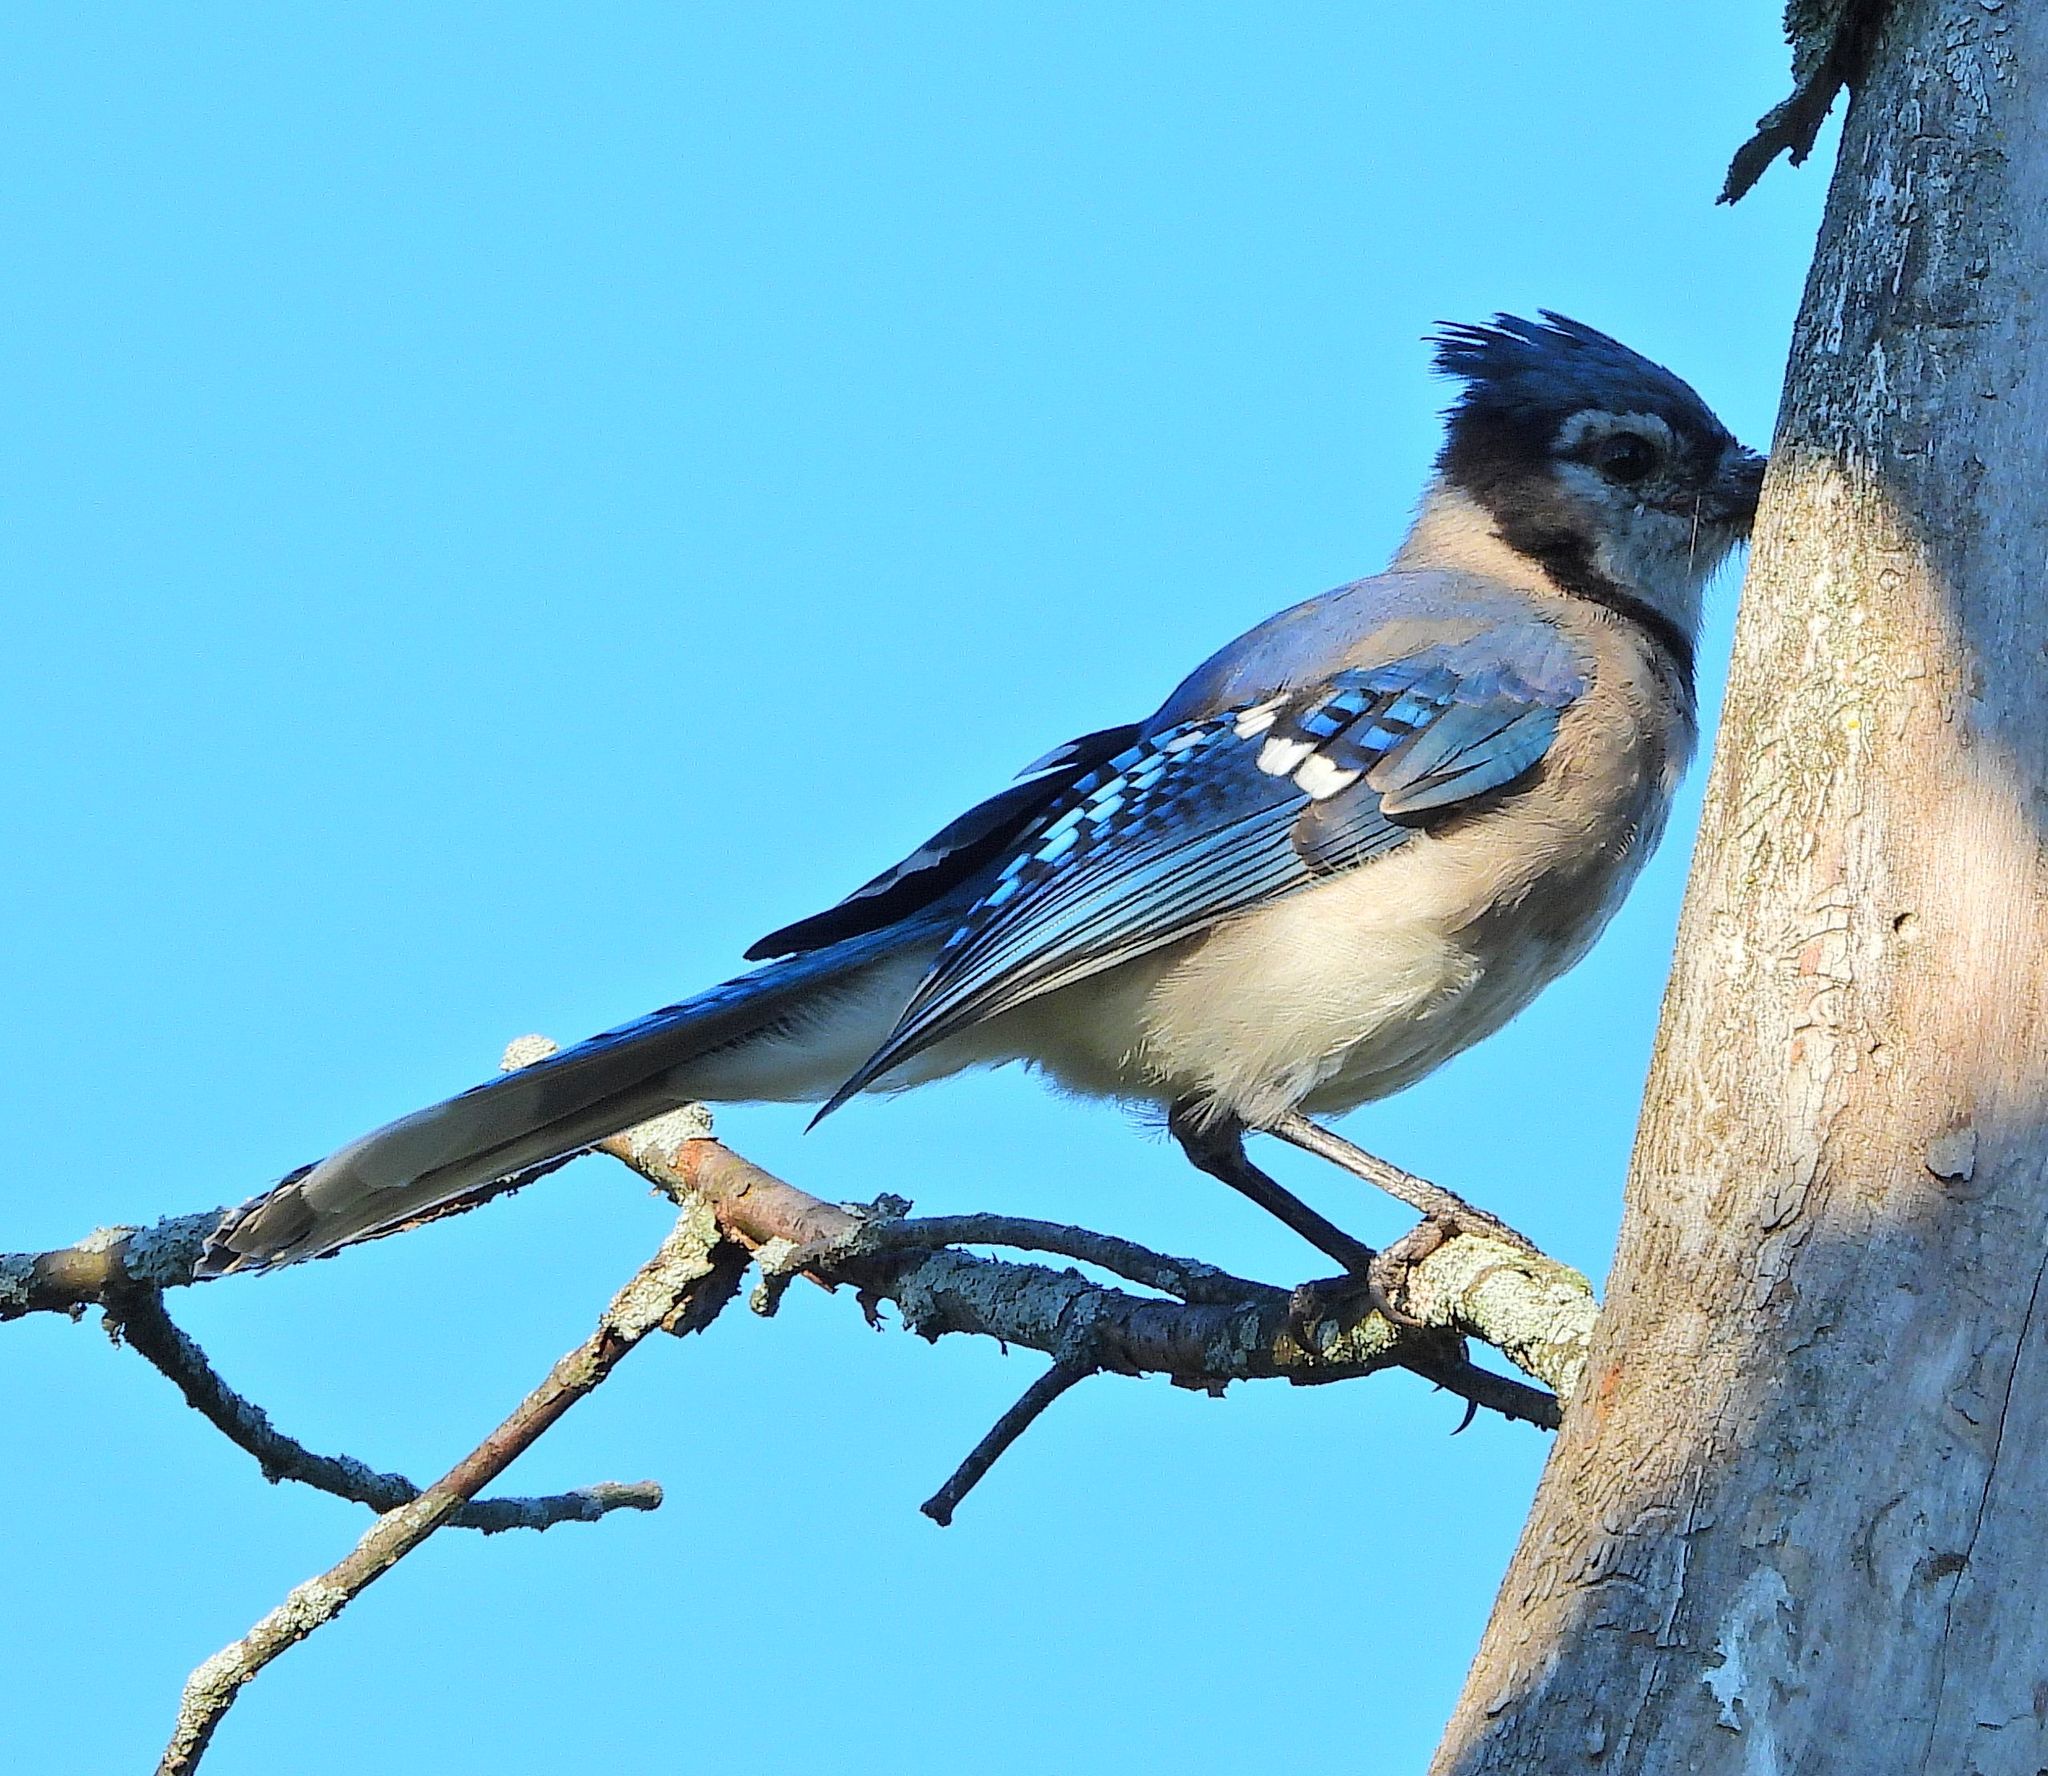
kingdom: Animalia
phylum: Chordata
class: Aves
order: Passeriformes
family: Corvidae
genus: Cyanocitta
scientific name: Cyanocitta cristata
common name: Blue jay
